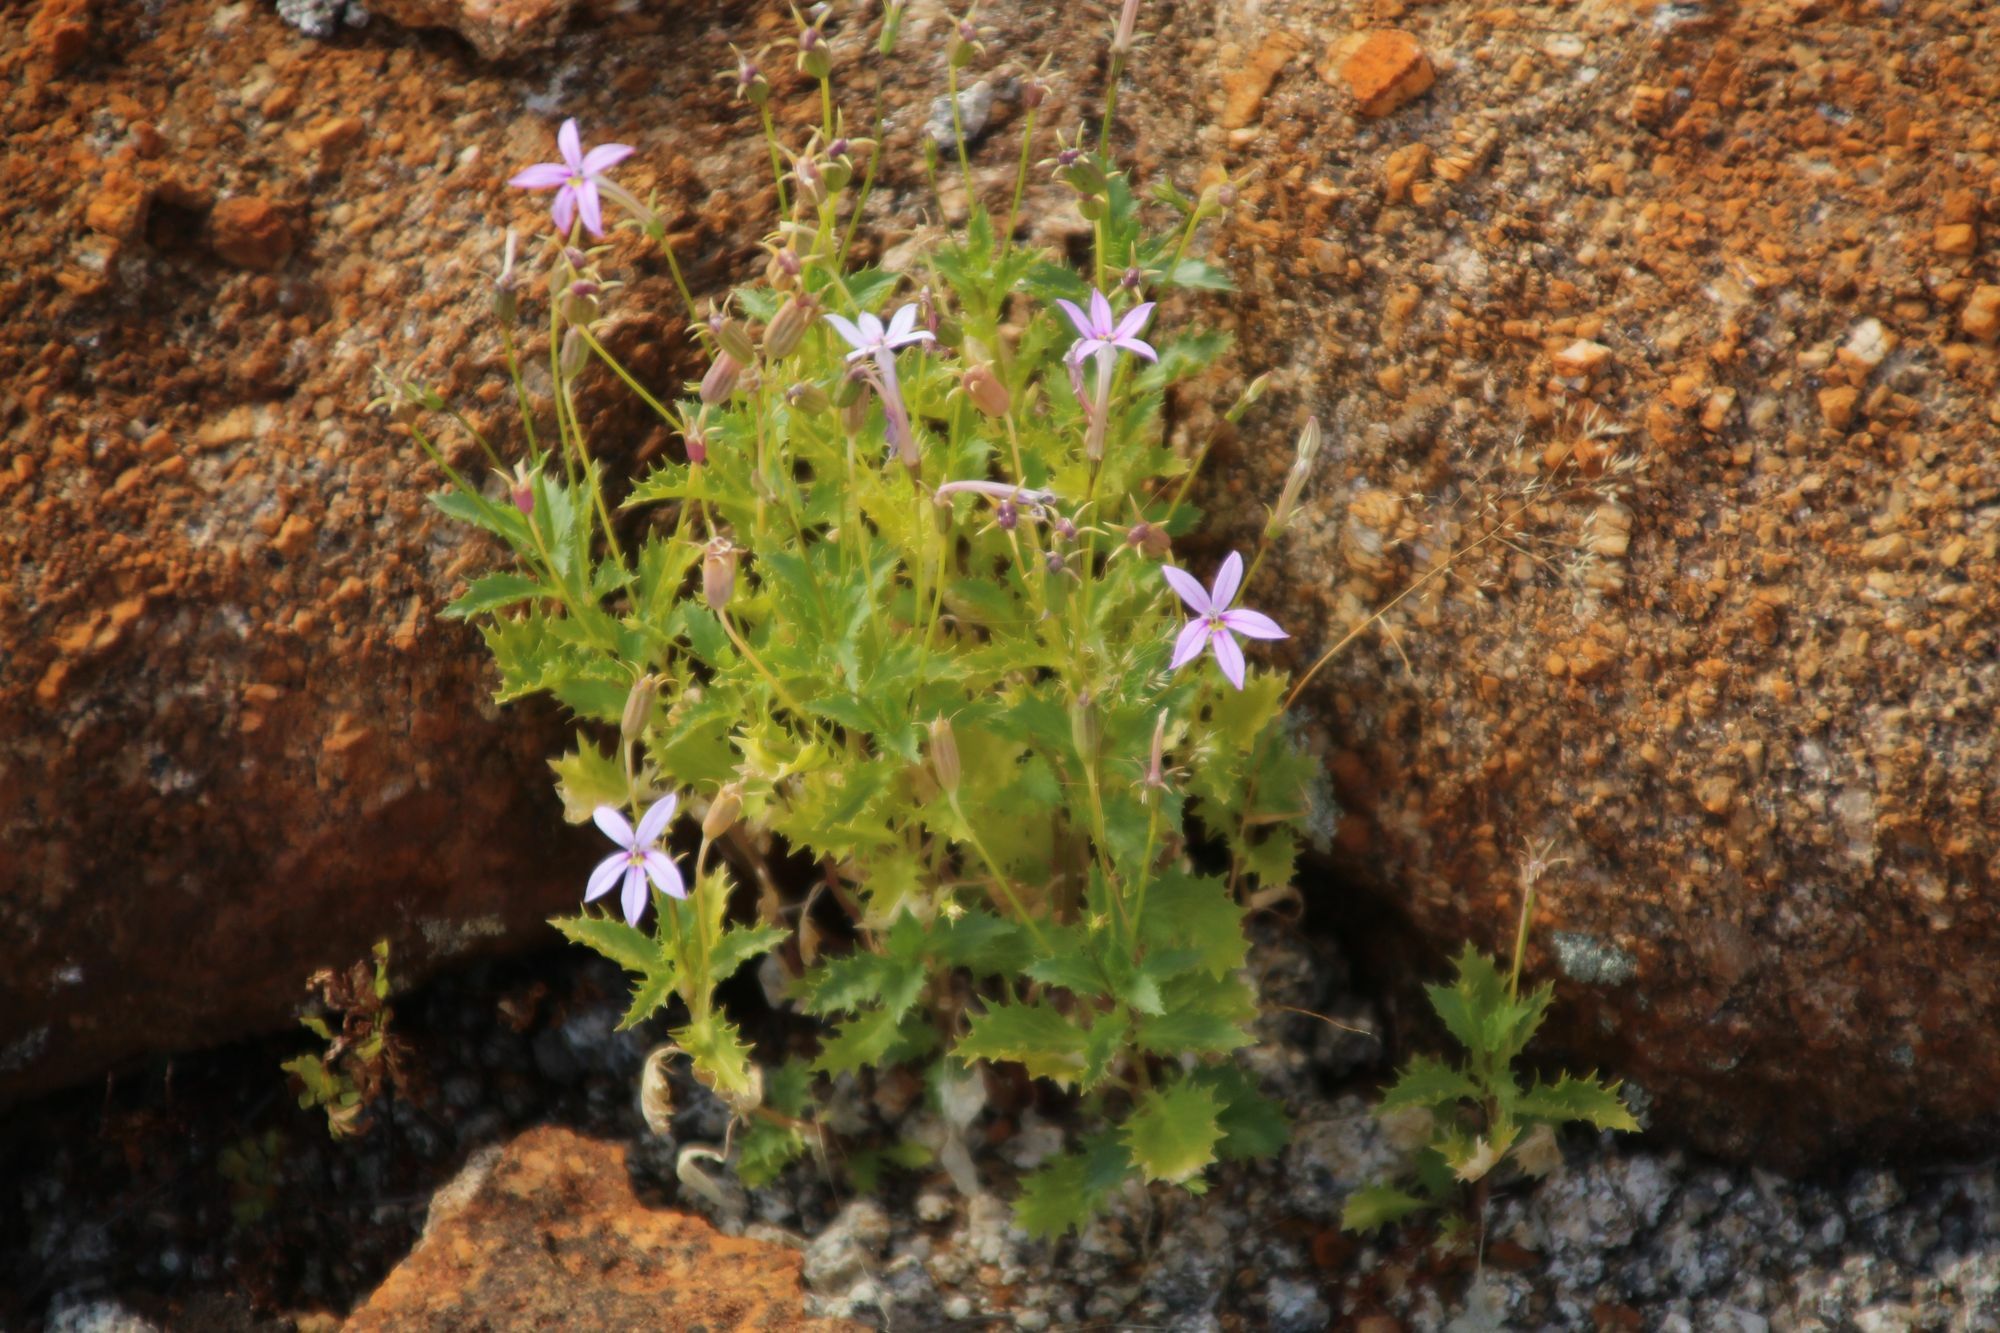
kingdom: Plantae
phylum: Tracheophyta
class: Magnoliopsida
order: Asterales
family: Campanulaceae
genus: Lithotoma
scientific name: Lithotoma petraea
